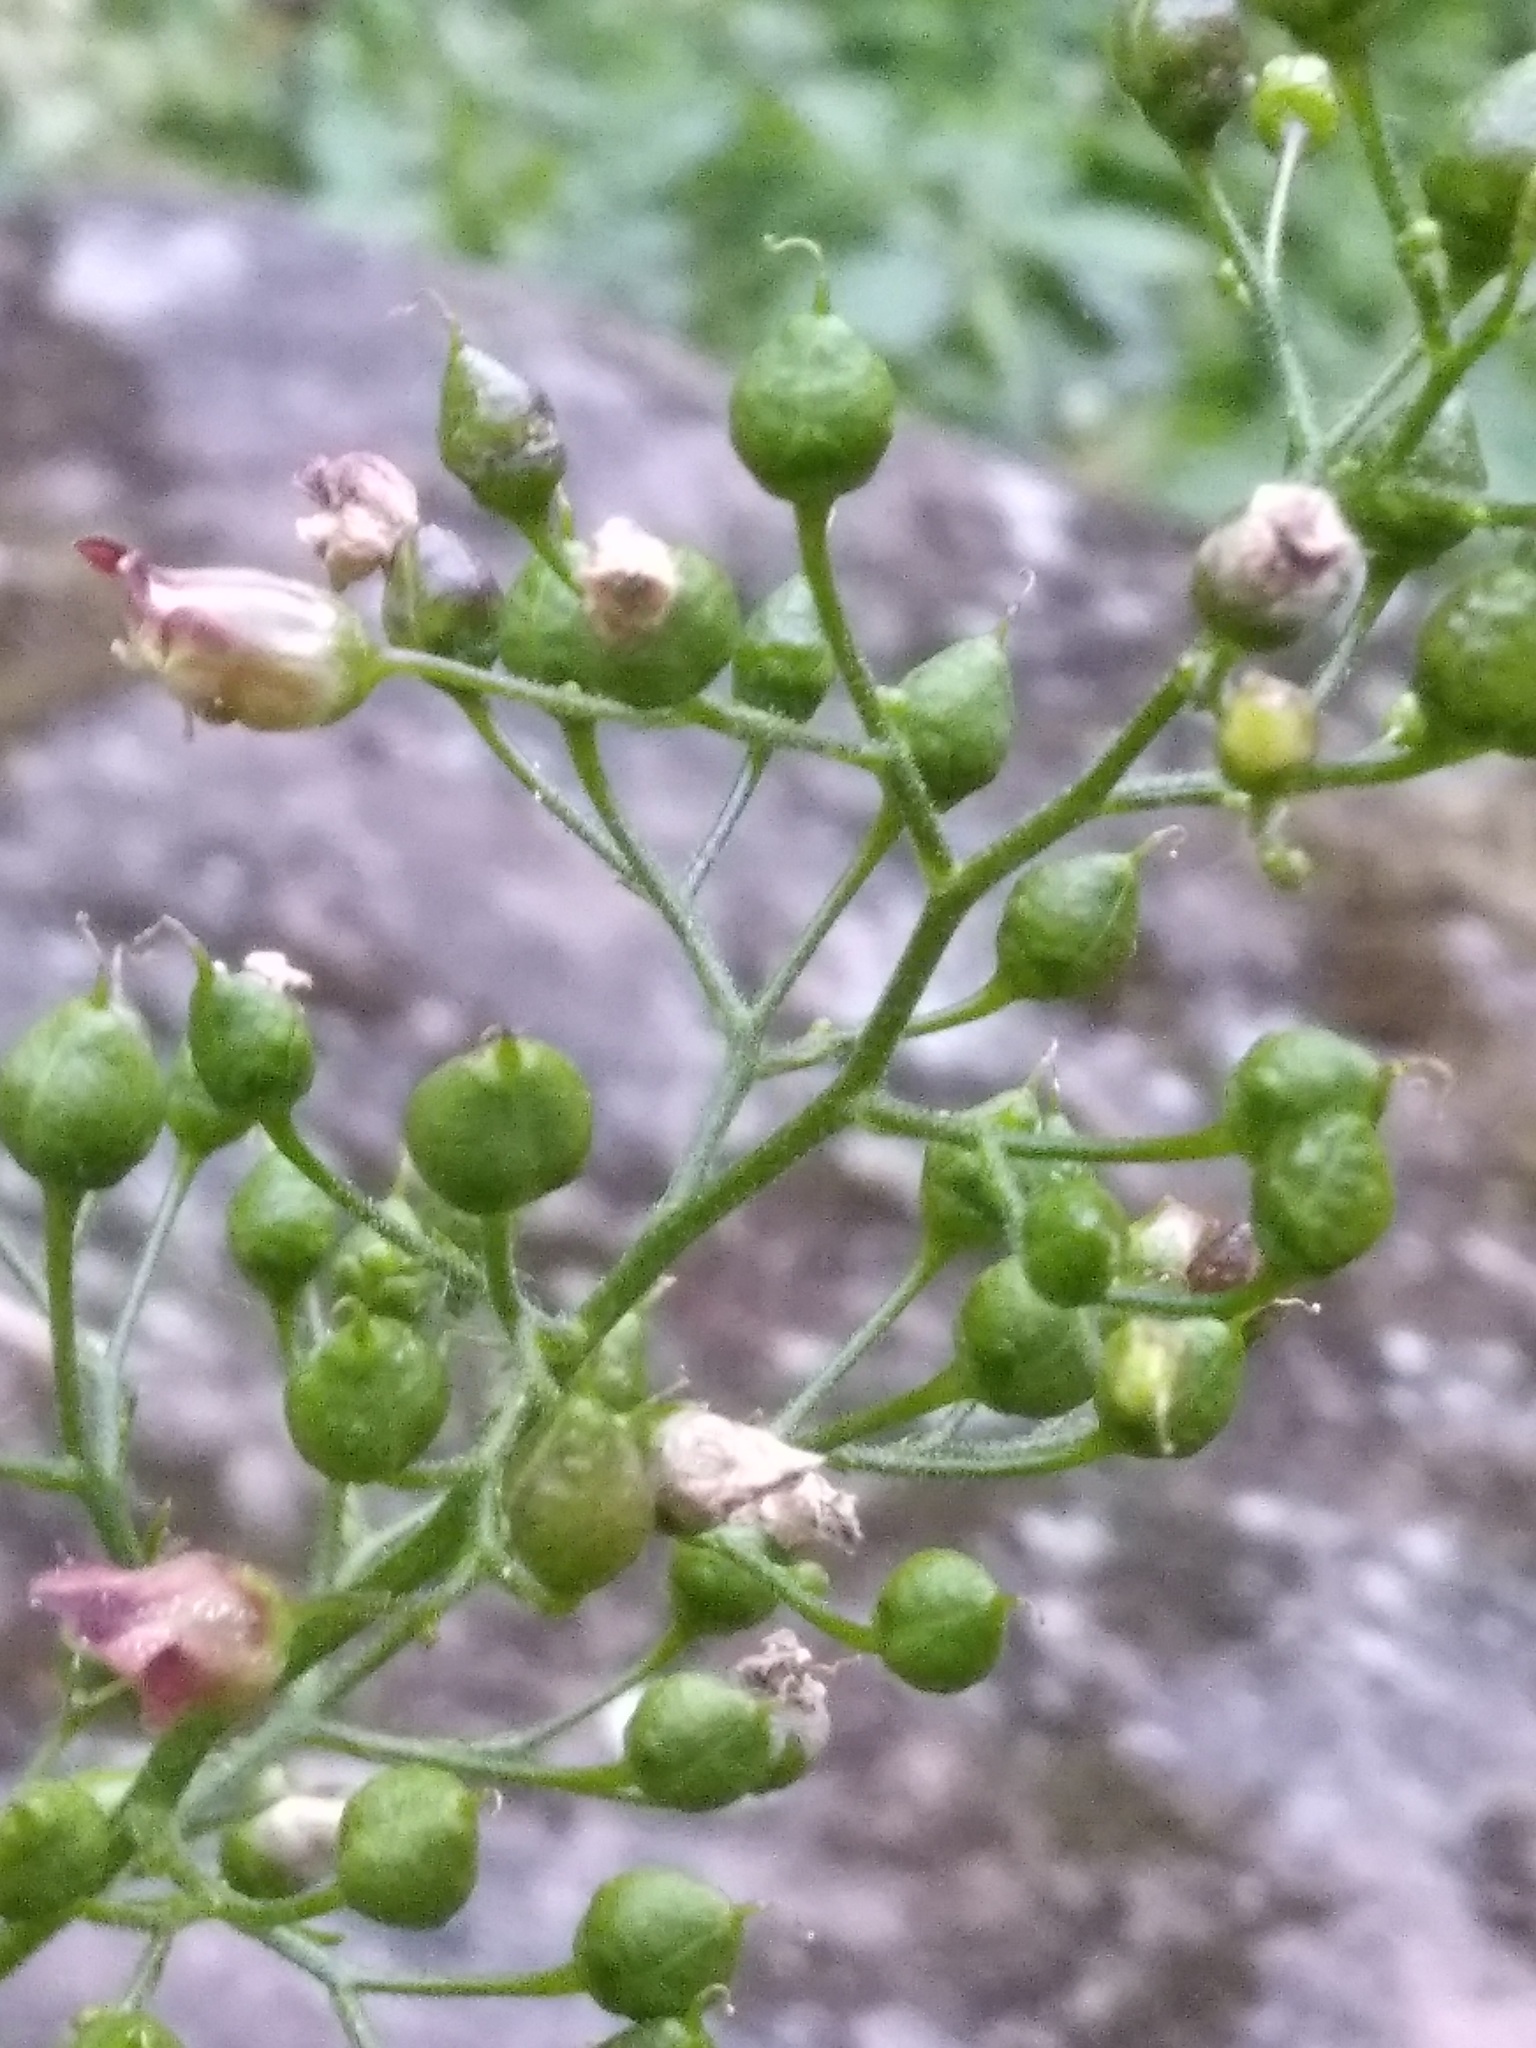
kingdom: Plantae
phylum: Tracheophyta
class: Magnoliopsida
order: Lamiales
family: Scrophulariaceae
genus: Scrophularia
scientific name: Scrophularia nodosa
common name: Common figwort
